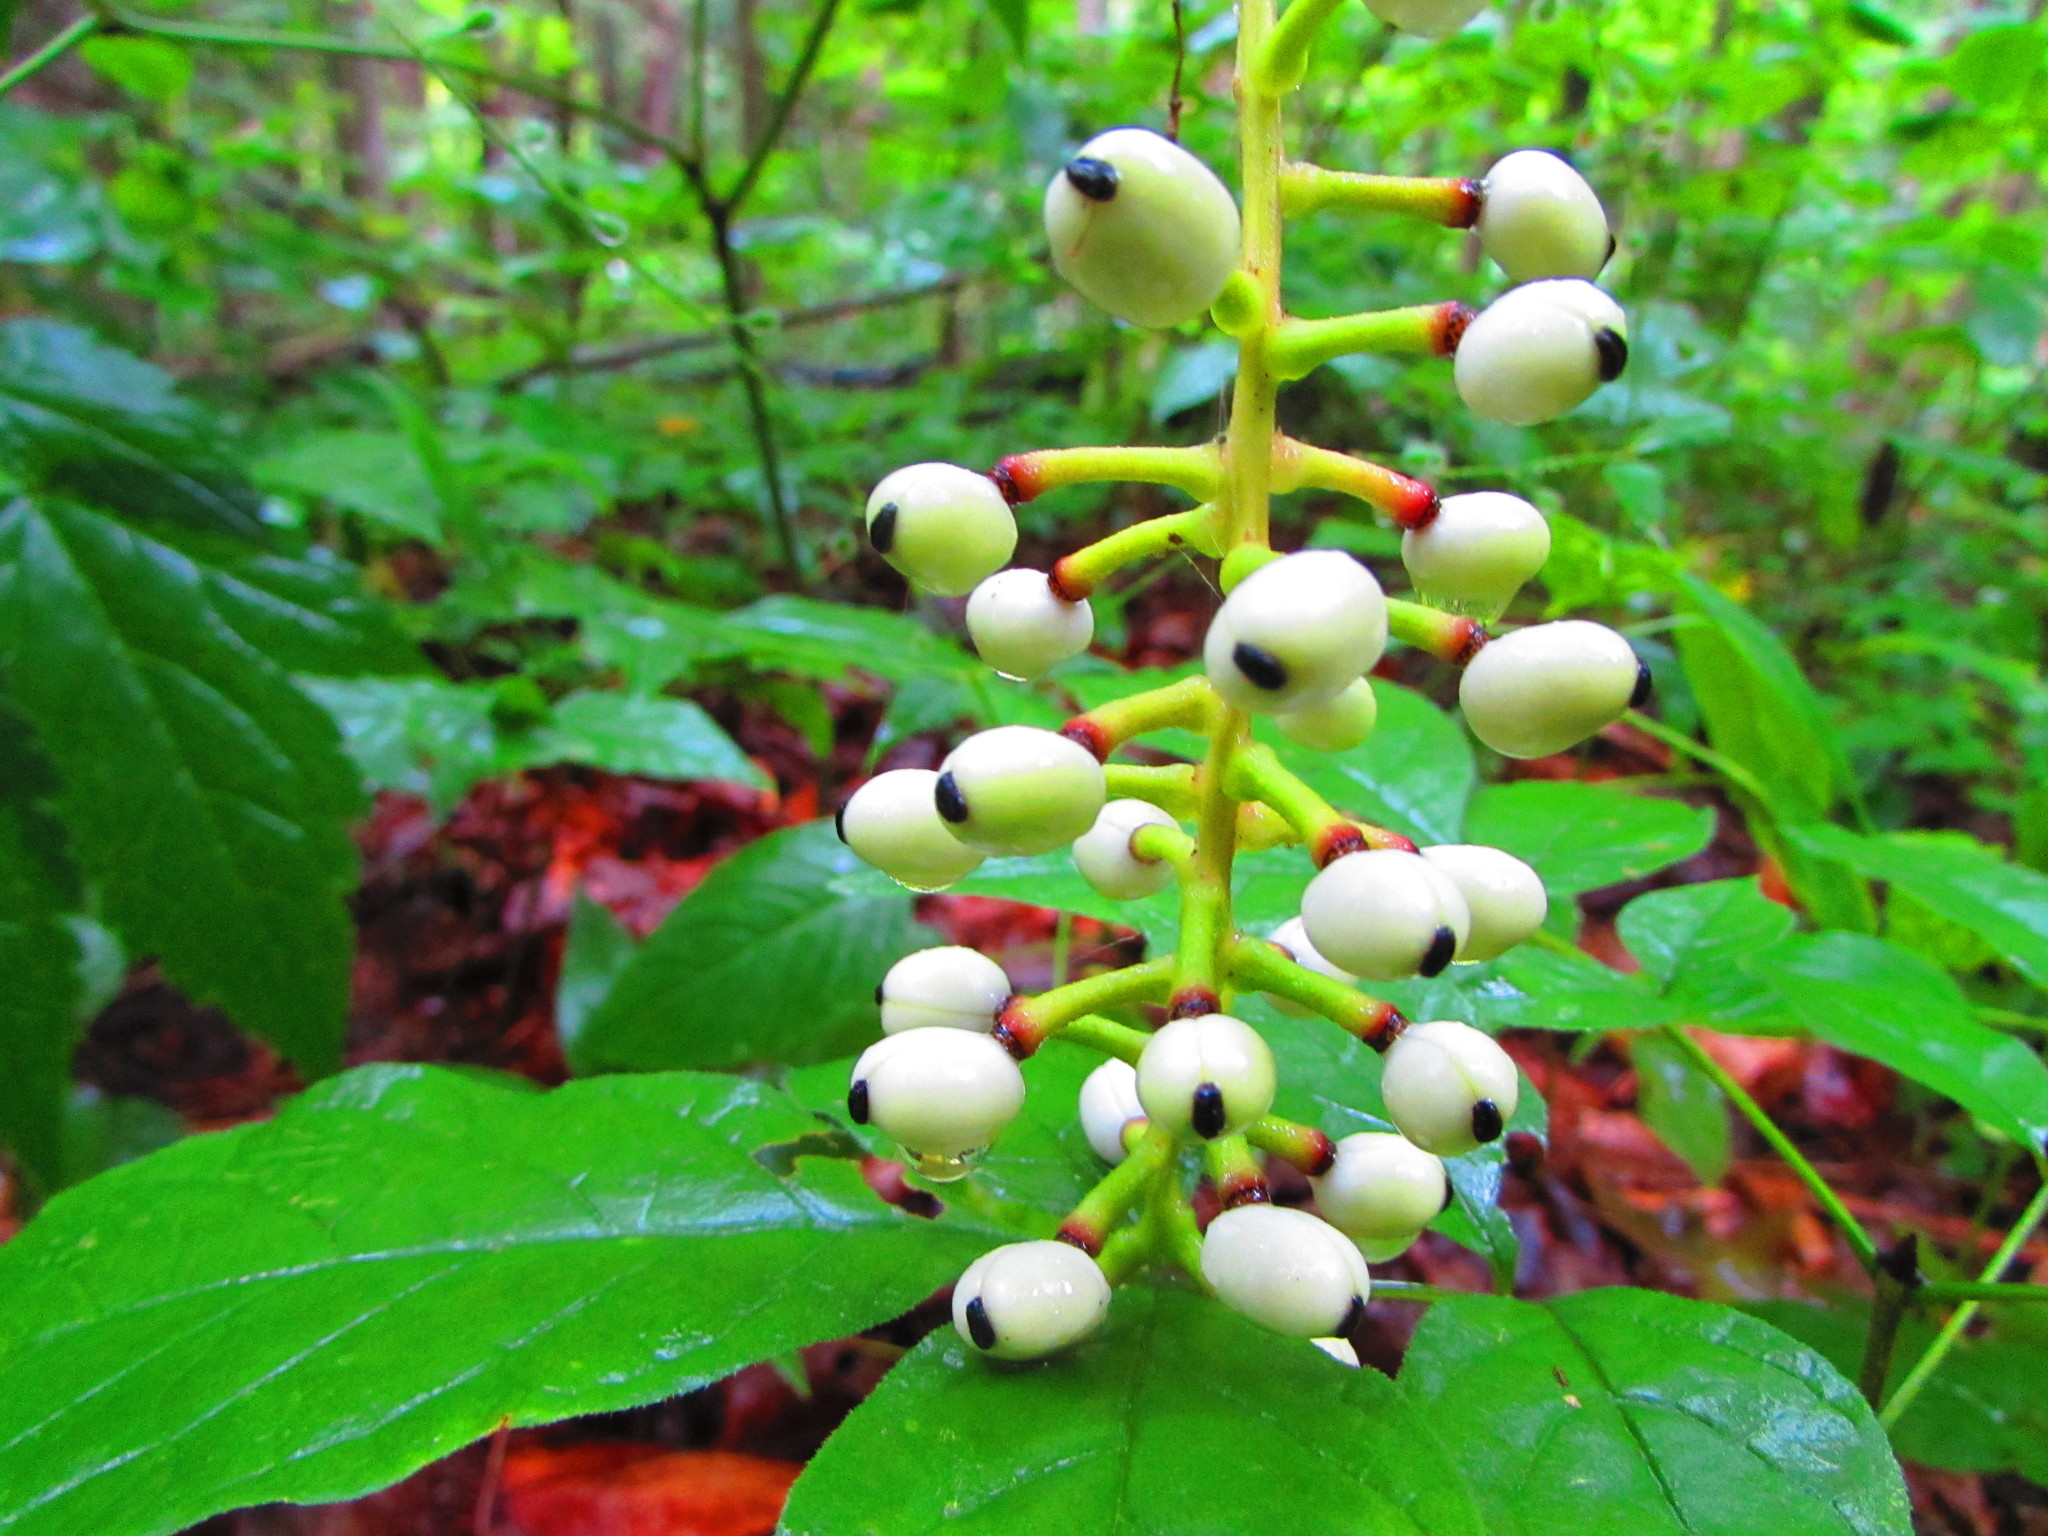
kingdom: Plantae
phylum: Tracheophyta
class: Magnoliopsida
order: Ranunculales
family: Ranunculaceae
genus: Actaea
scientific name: Actaea pachypoda
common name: Doll's-eyes
